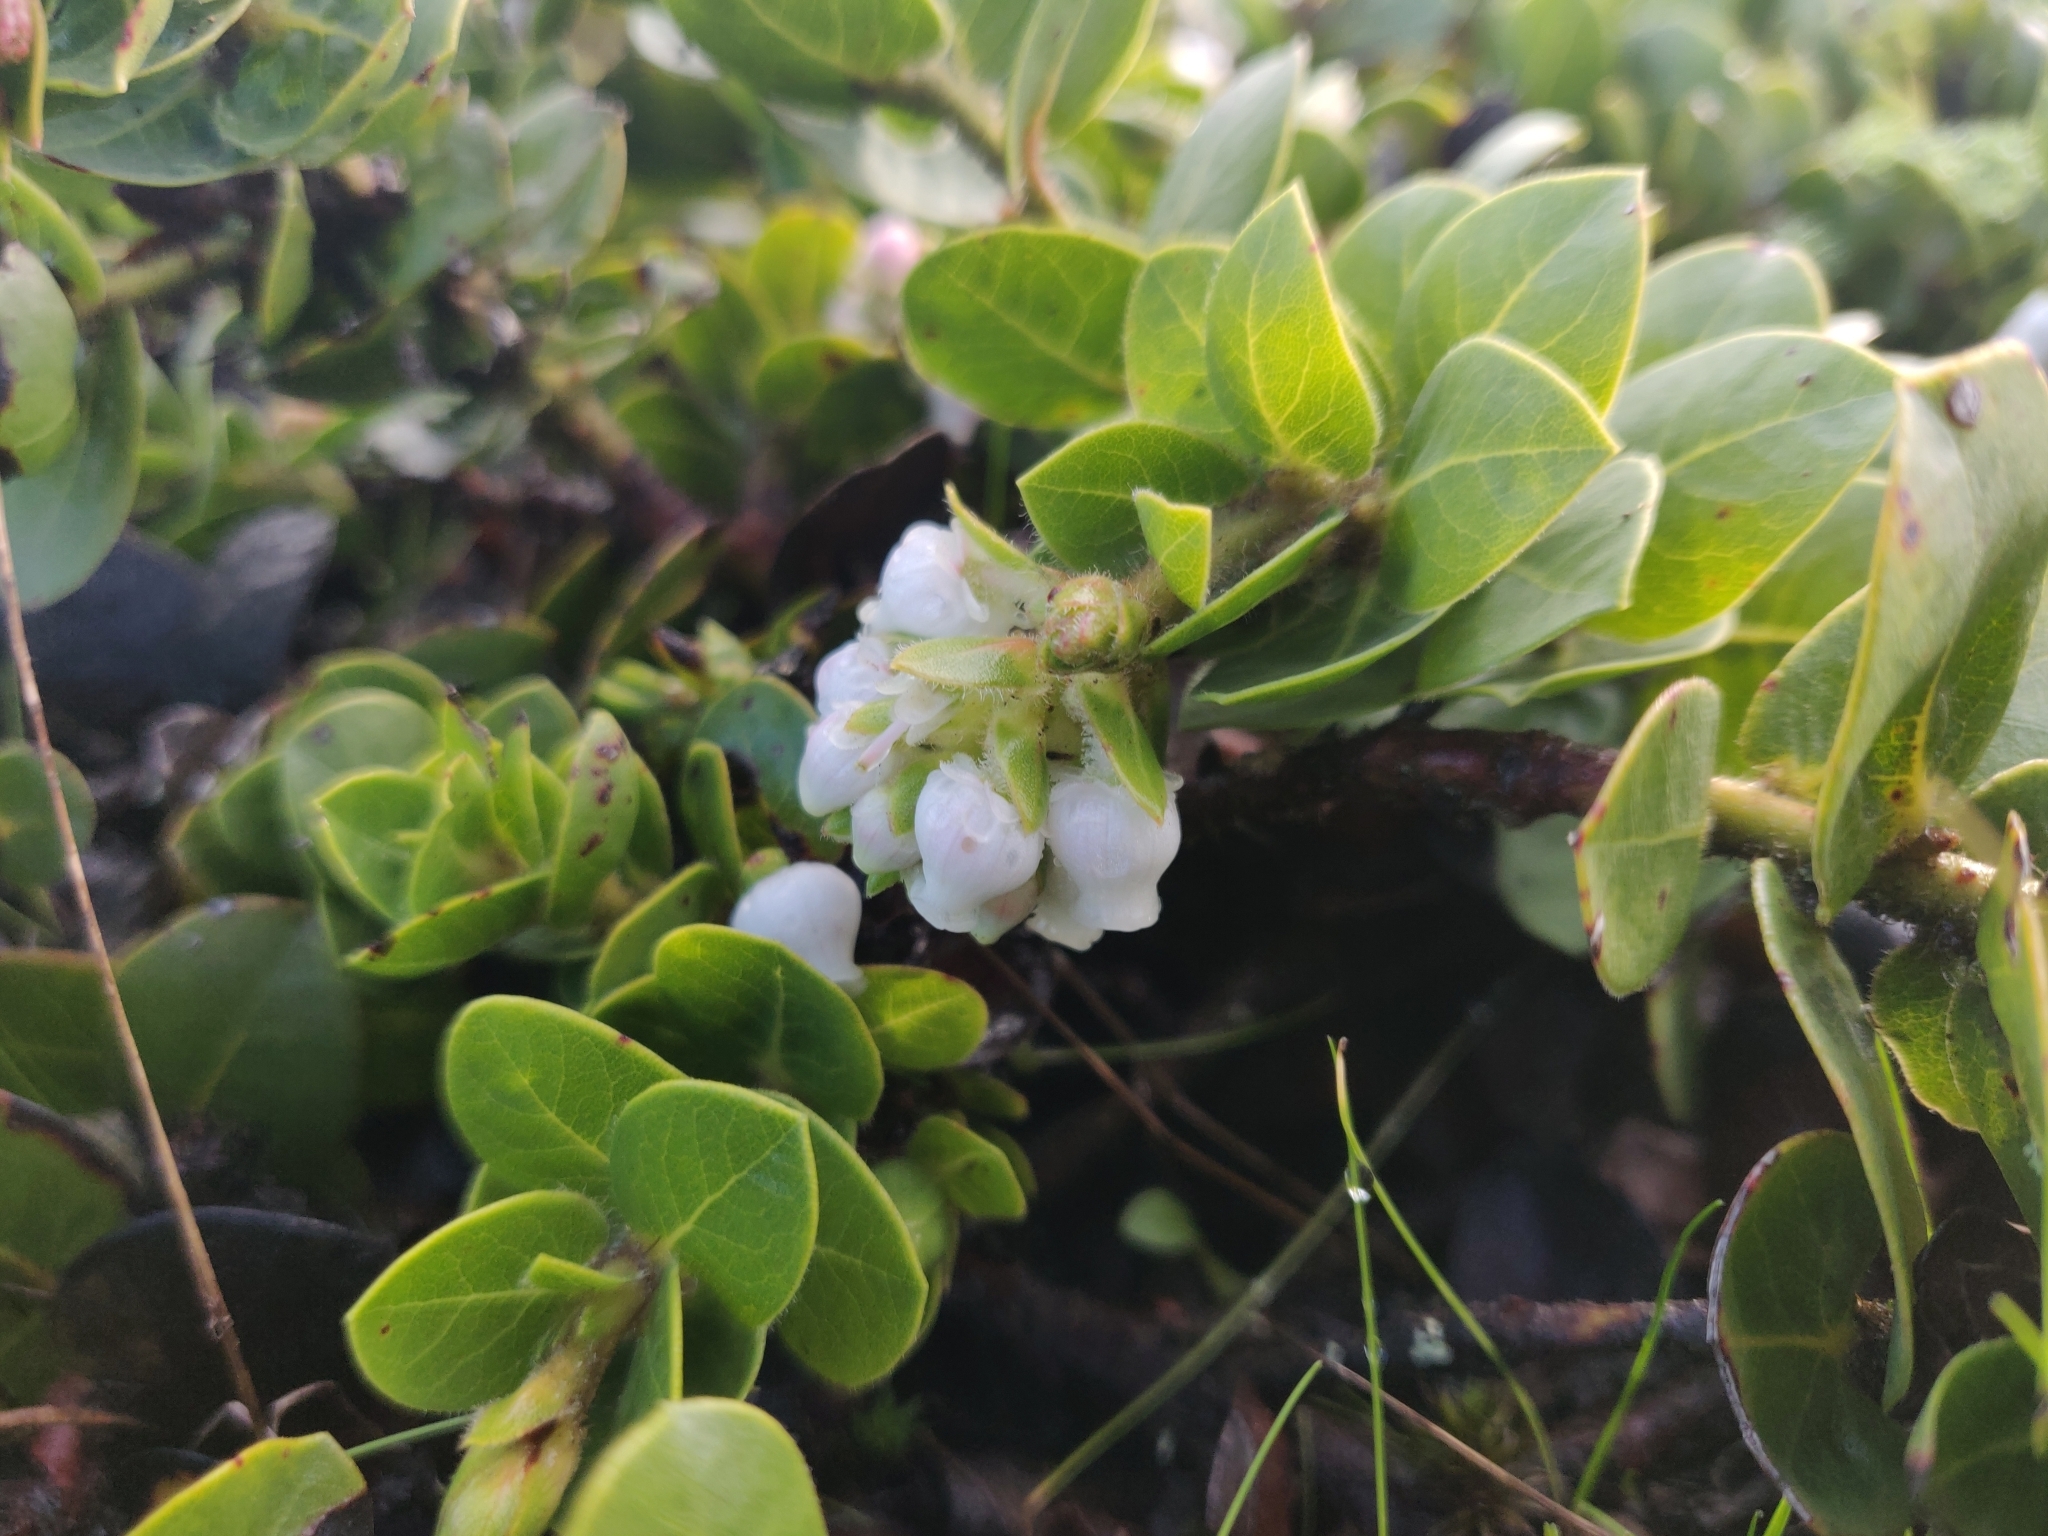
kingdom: Plantae
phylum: Tracheophyta
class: Magnoliopsida
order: Ericales
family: Ericaceae
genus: Arctostaphylos
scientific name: Arctostaphylos imbricata
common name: San bruno mountain manzanita
